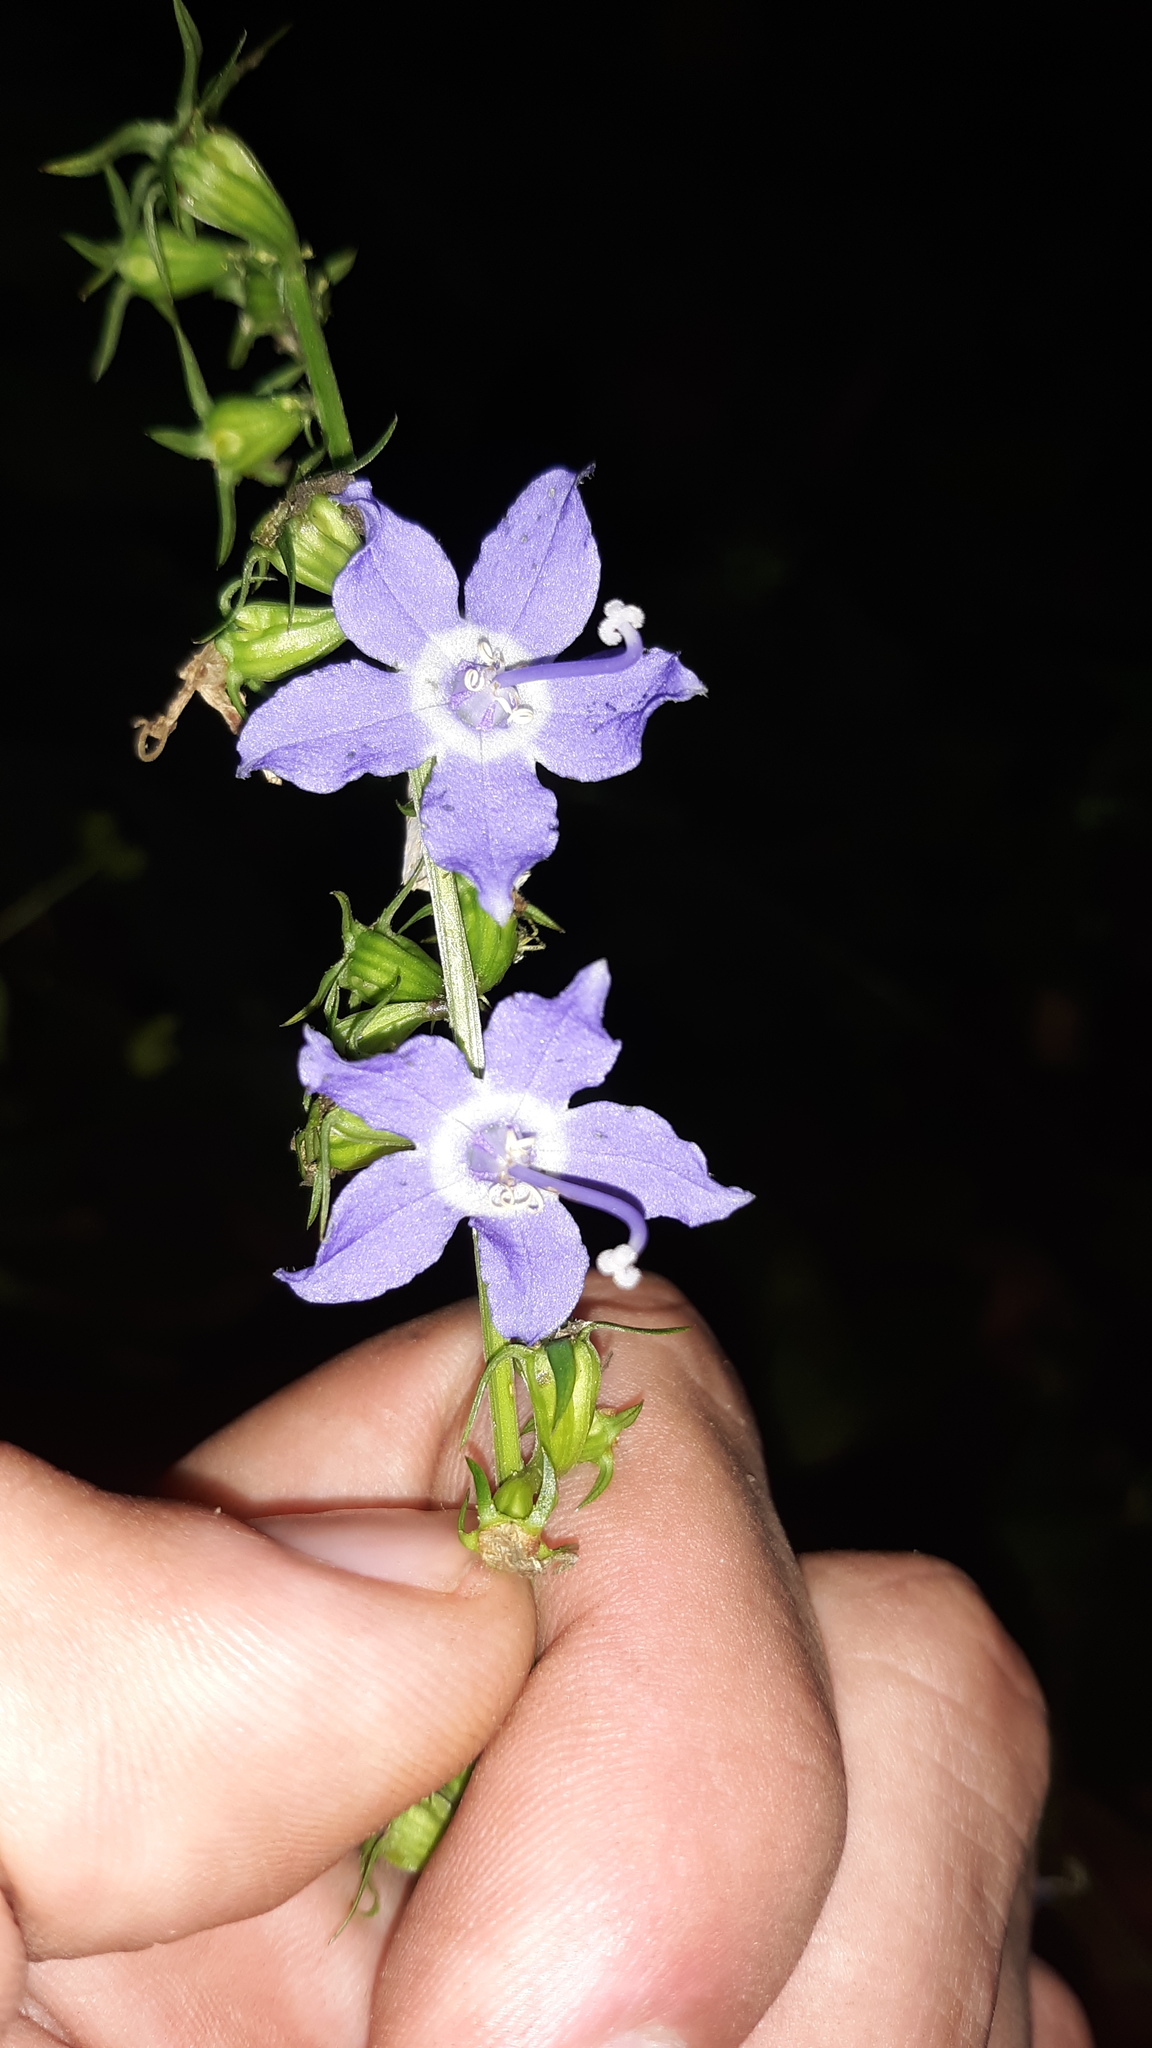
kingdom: Plantae
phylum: Tracheophyta
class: Magnoliopsida
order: Asterales
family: Campanulaceae
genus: Campanulastrum
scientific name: Campanulastrum americanum
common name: American bellflower
